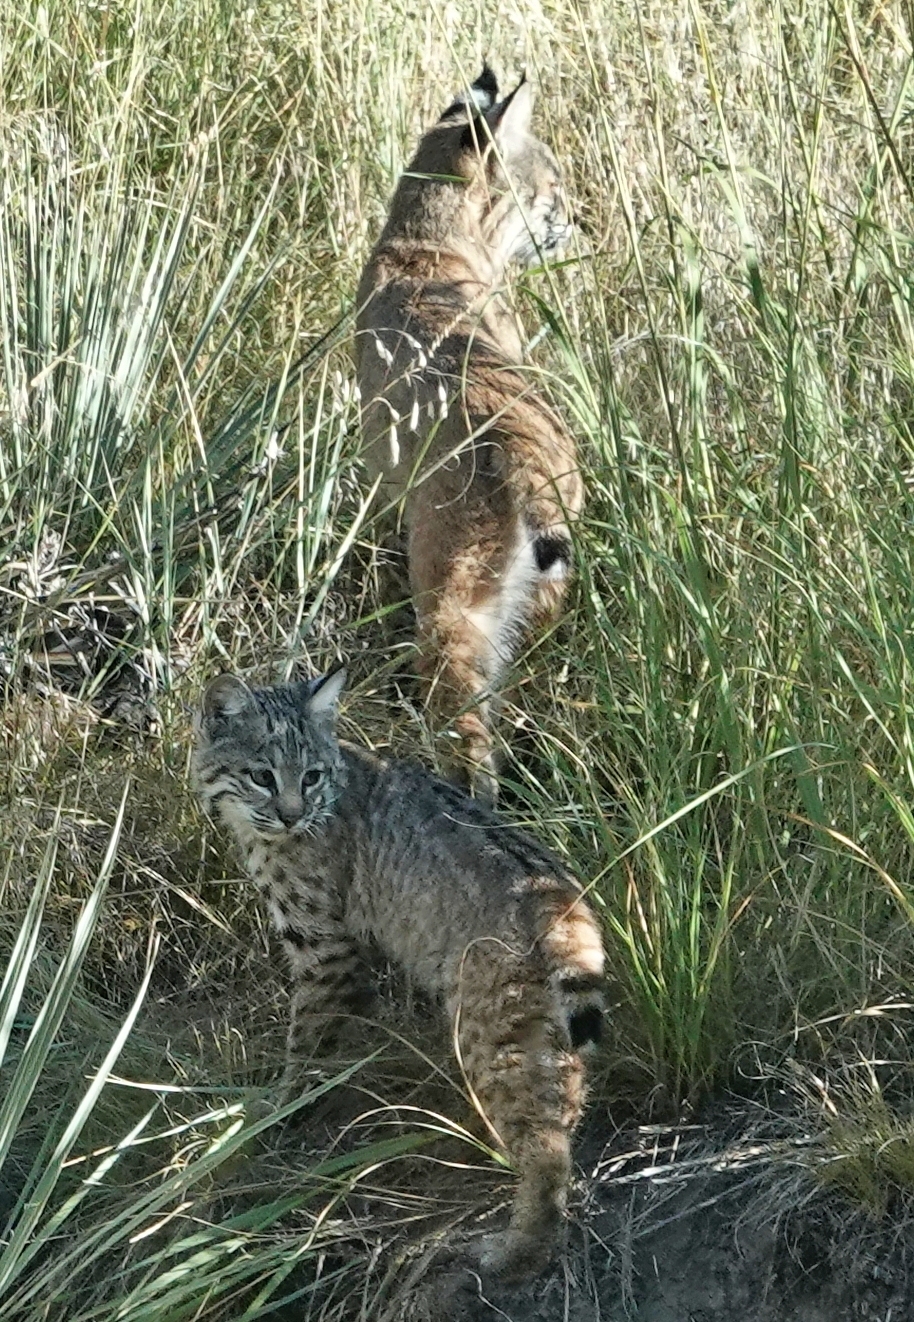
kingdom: Animalia
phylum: Chordata
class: Mammalia
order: Carnivora
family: Felidae
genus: Lynx
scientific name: Lynx rufus
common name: Bobcat
